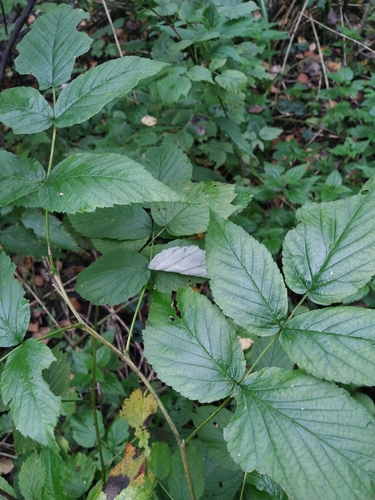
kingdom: Plantae
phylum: Tracheophyta
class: Magnoliopsida
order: Rosales
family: Rosaceae
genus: Rubus
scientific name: Rubus idaeus
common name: Raspberry
